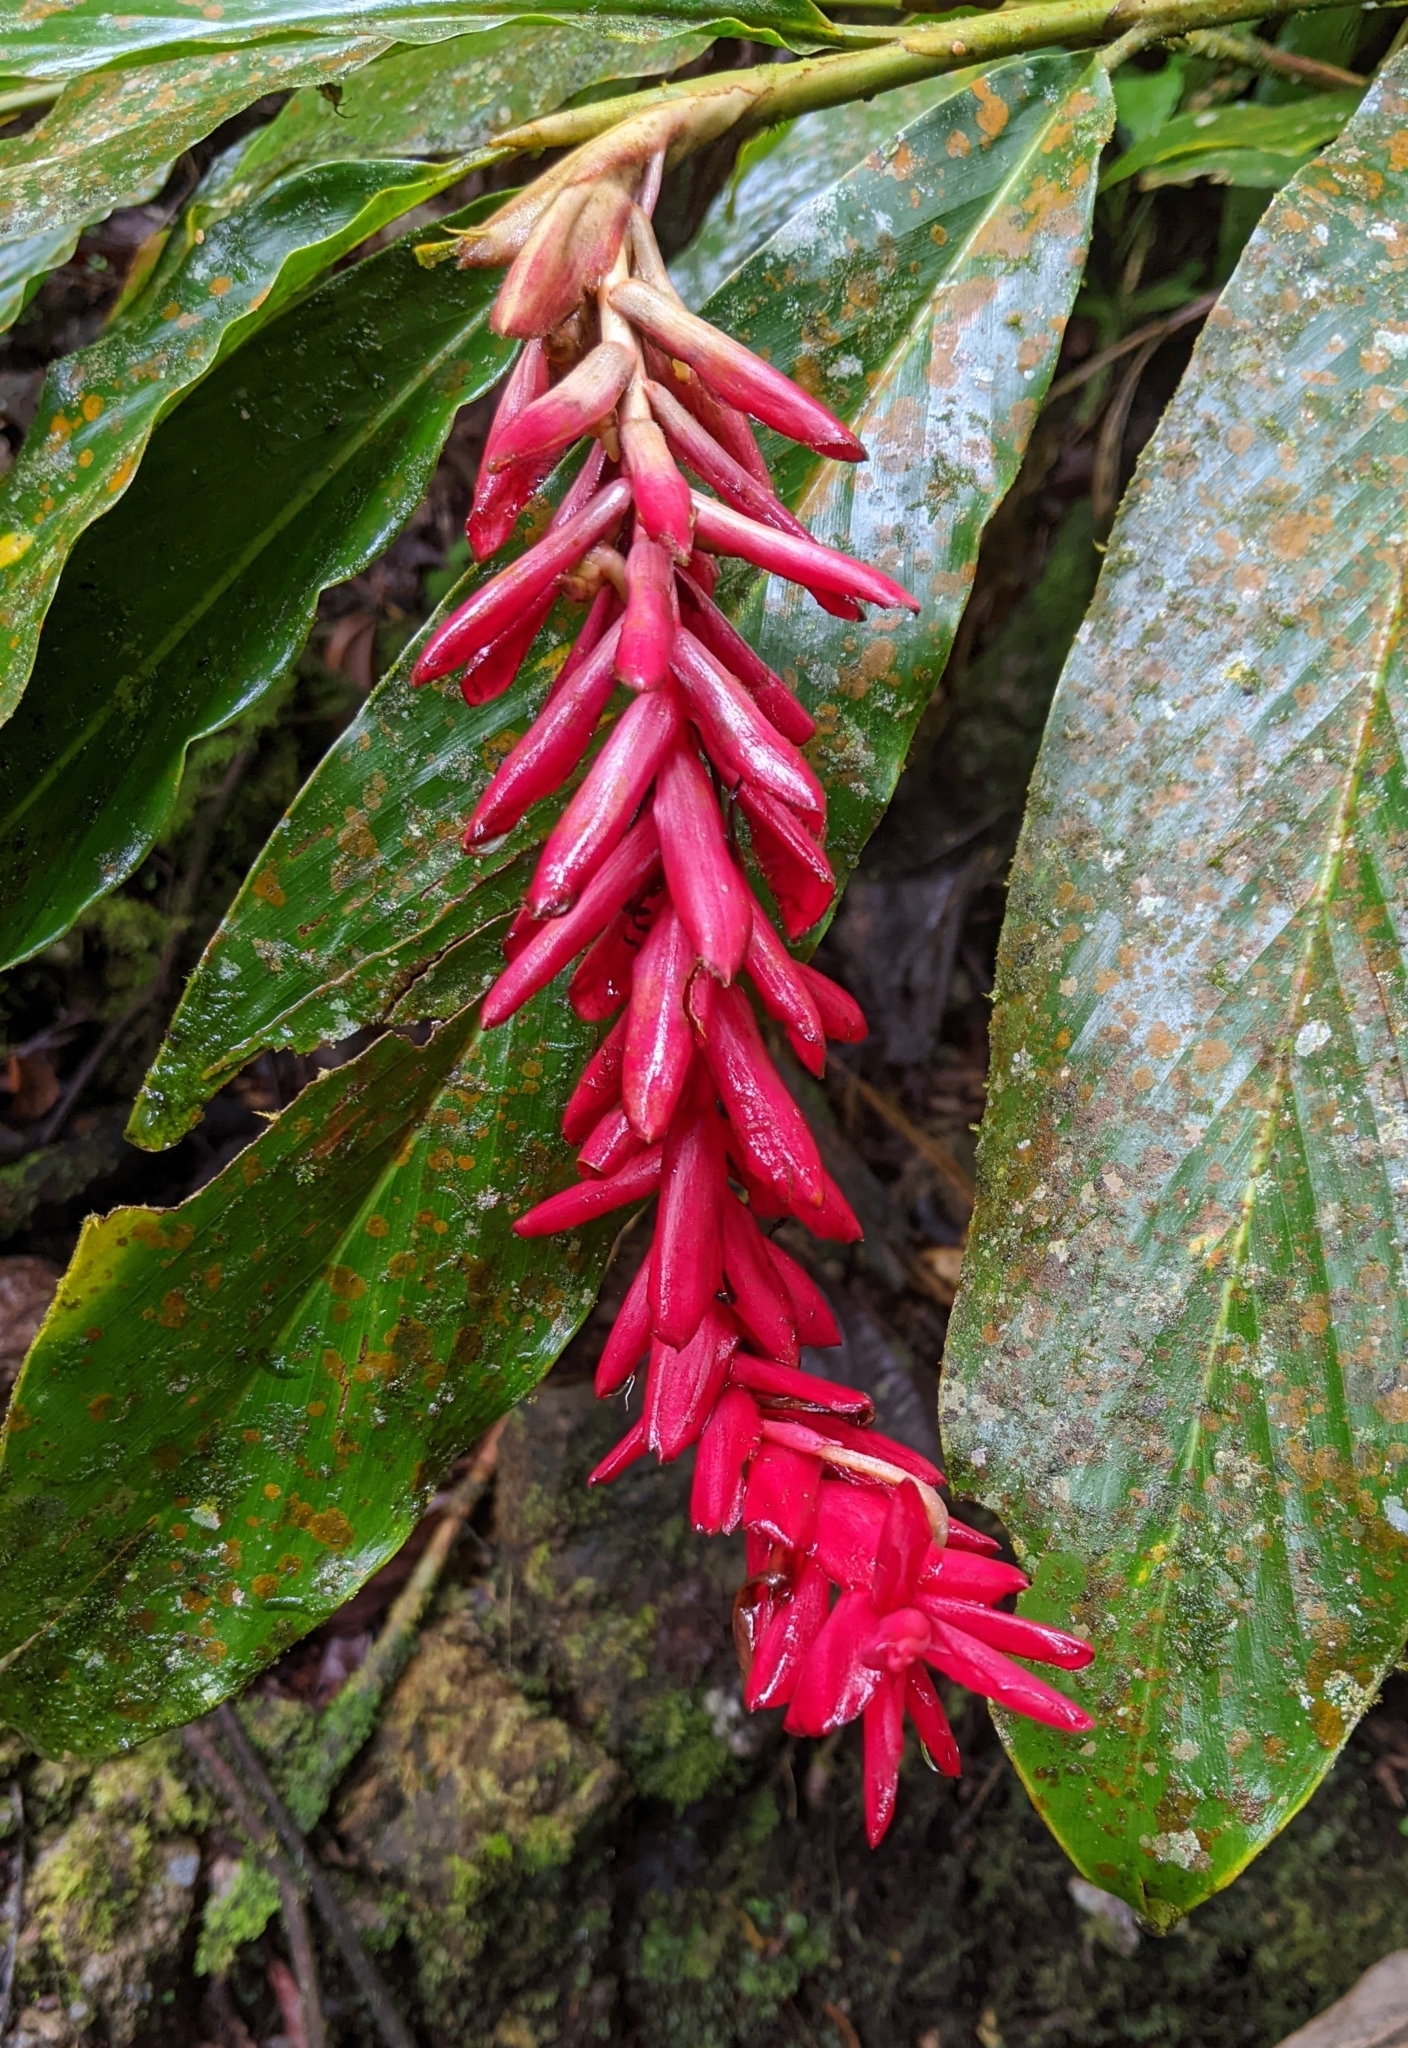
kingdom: Plantae
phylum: Tracheophyta
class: Liliopsida
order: Zingiberales
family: Zingiberaceae
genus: Alpinia
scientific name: Alpinia purpurata
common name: Red ginger
